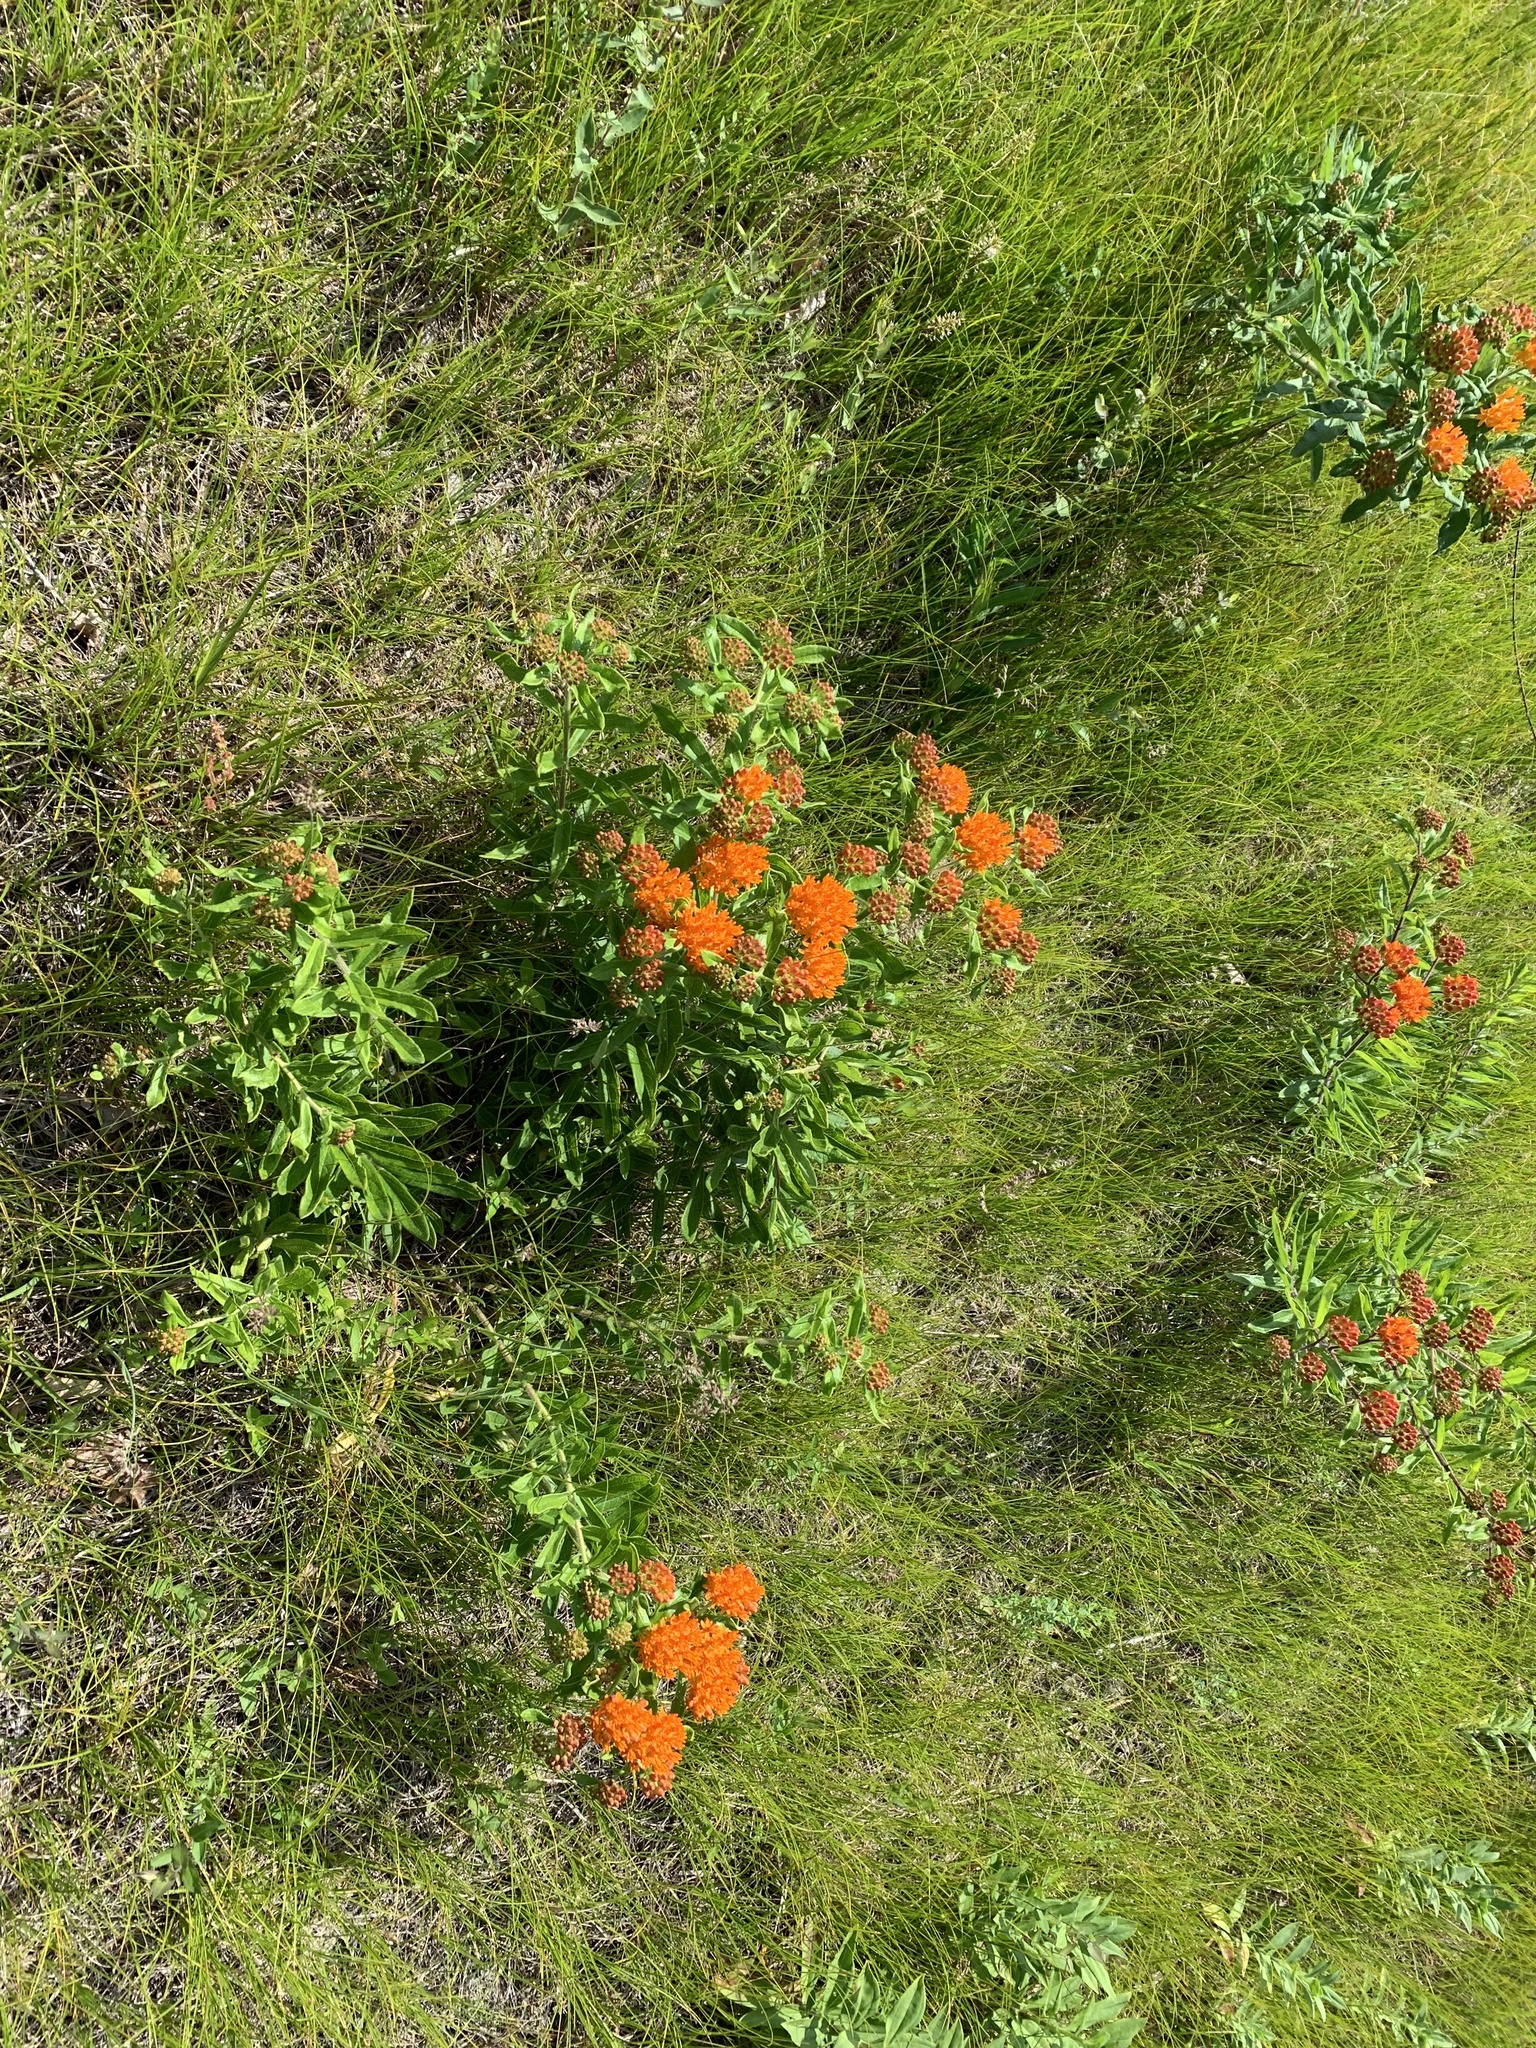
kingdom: Plantae
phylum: Tracheophyta
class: Magnoliopsida
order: Gentianales
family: Apocynaceae
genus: Asclepias
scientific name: Asclepias tuberosa
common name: Butterfly milkweed
